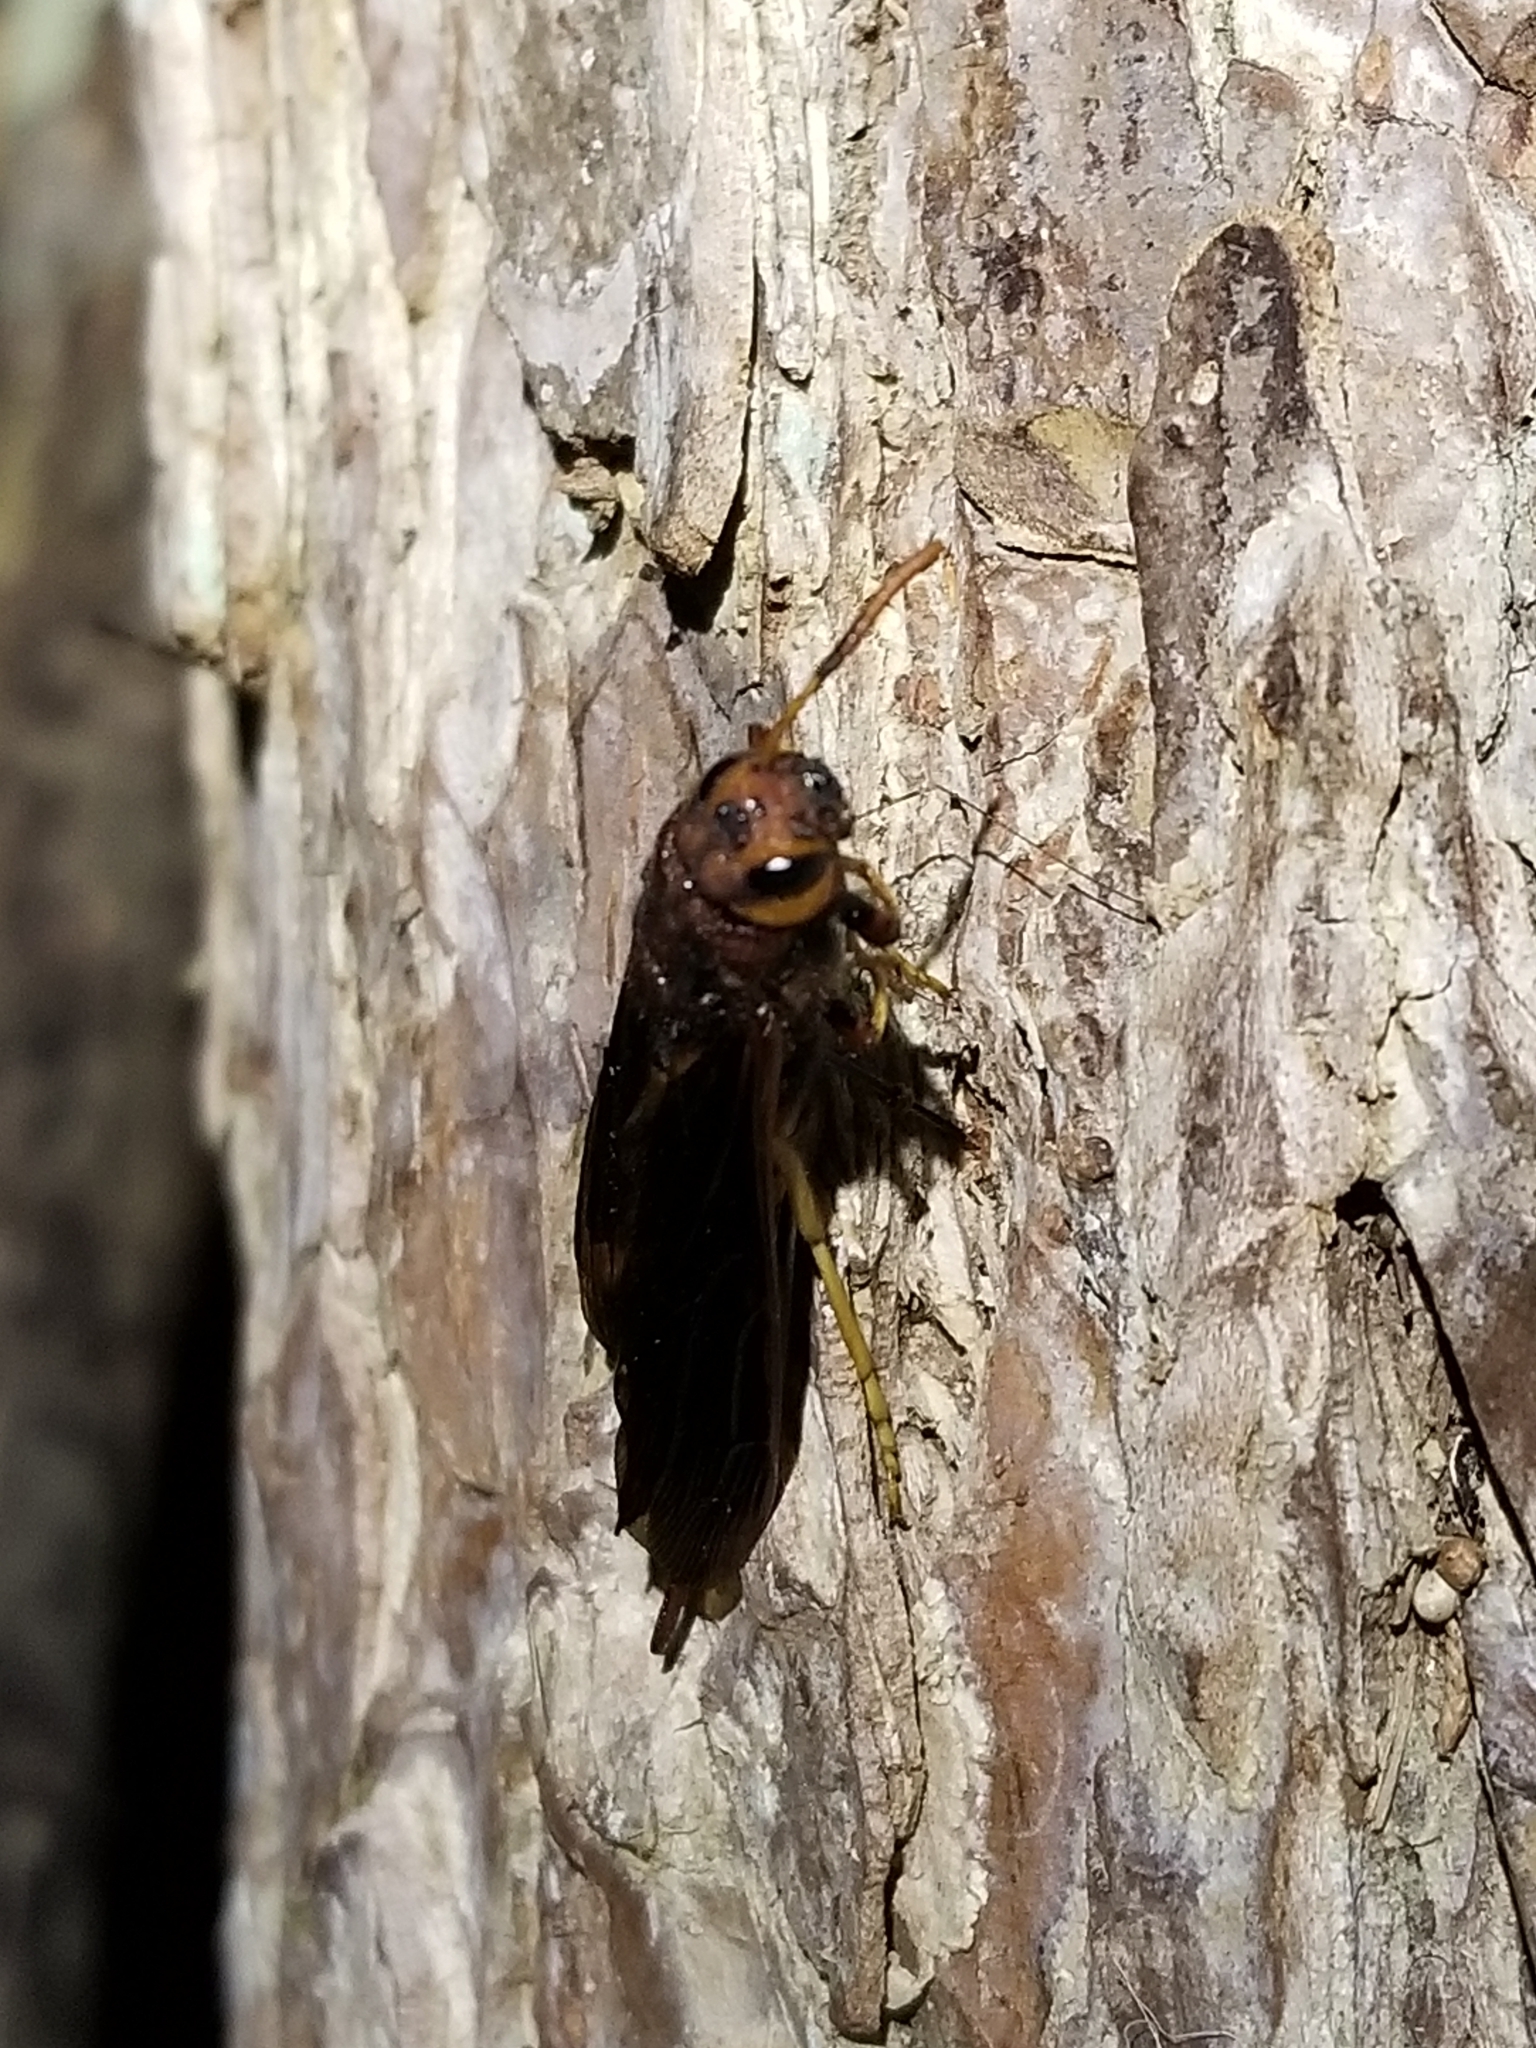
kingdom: Animalia
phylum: Arthropoda
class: Insecta
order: Hymenoptera
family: Siricidae
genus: Tremex
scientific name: Tremex columba
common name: Wasp
